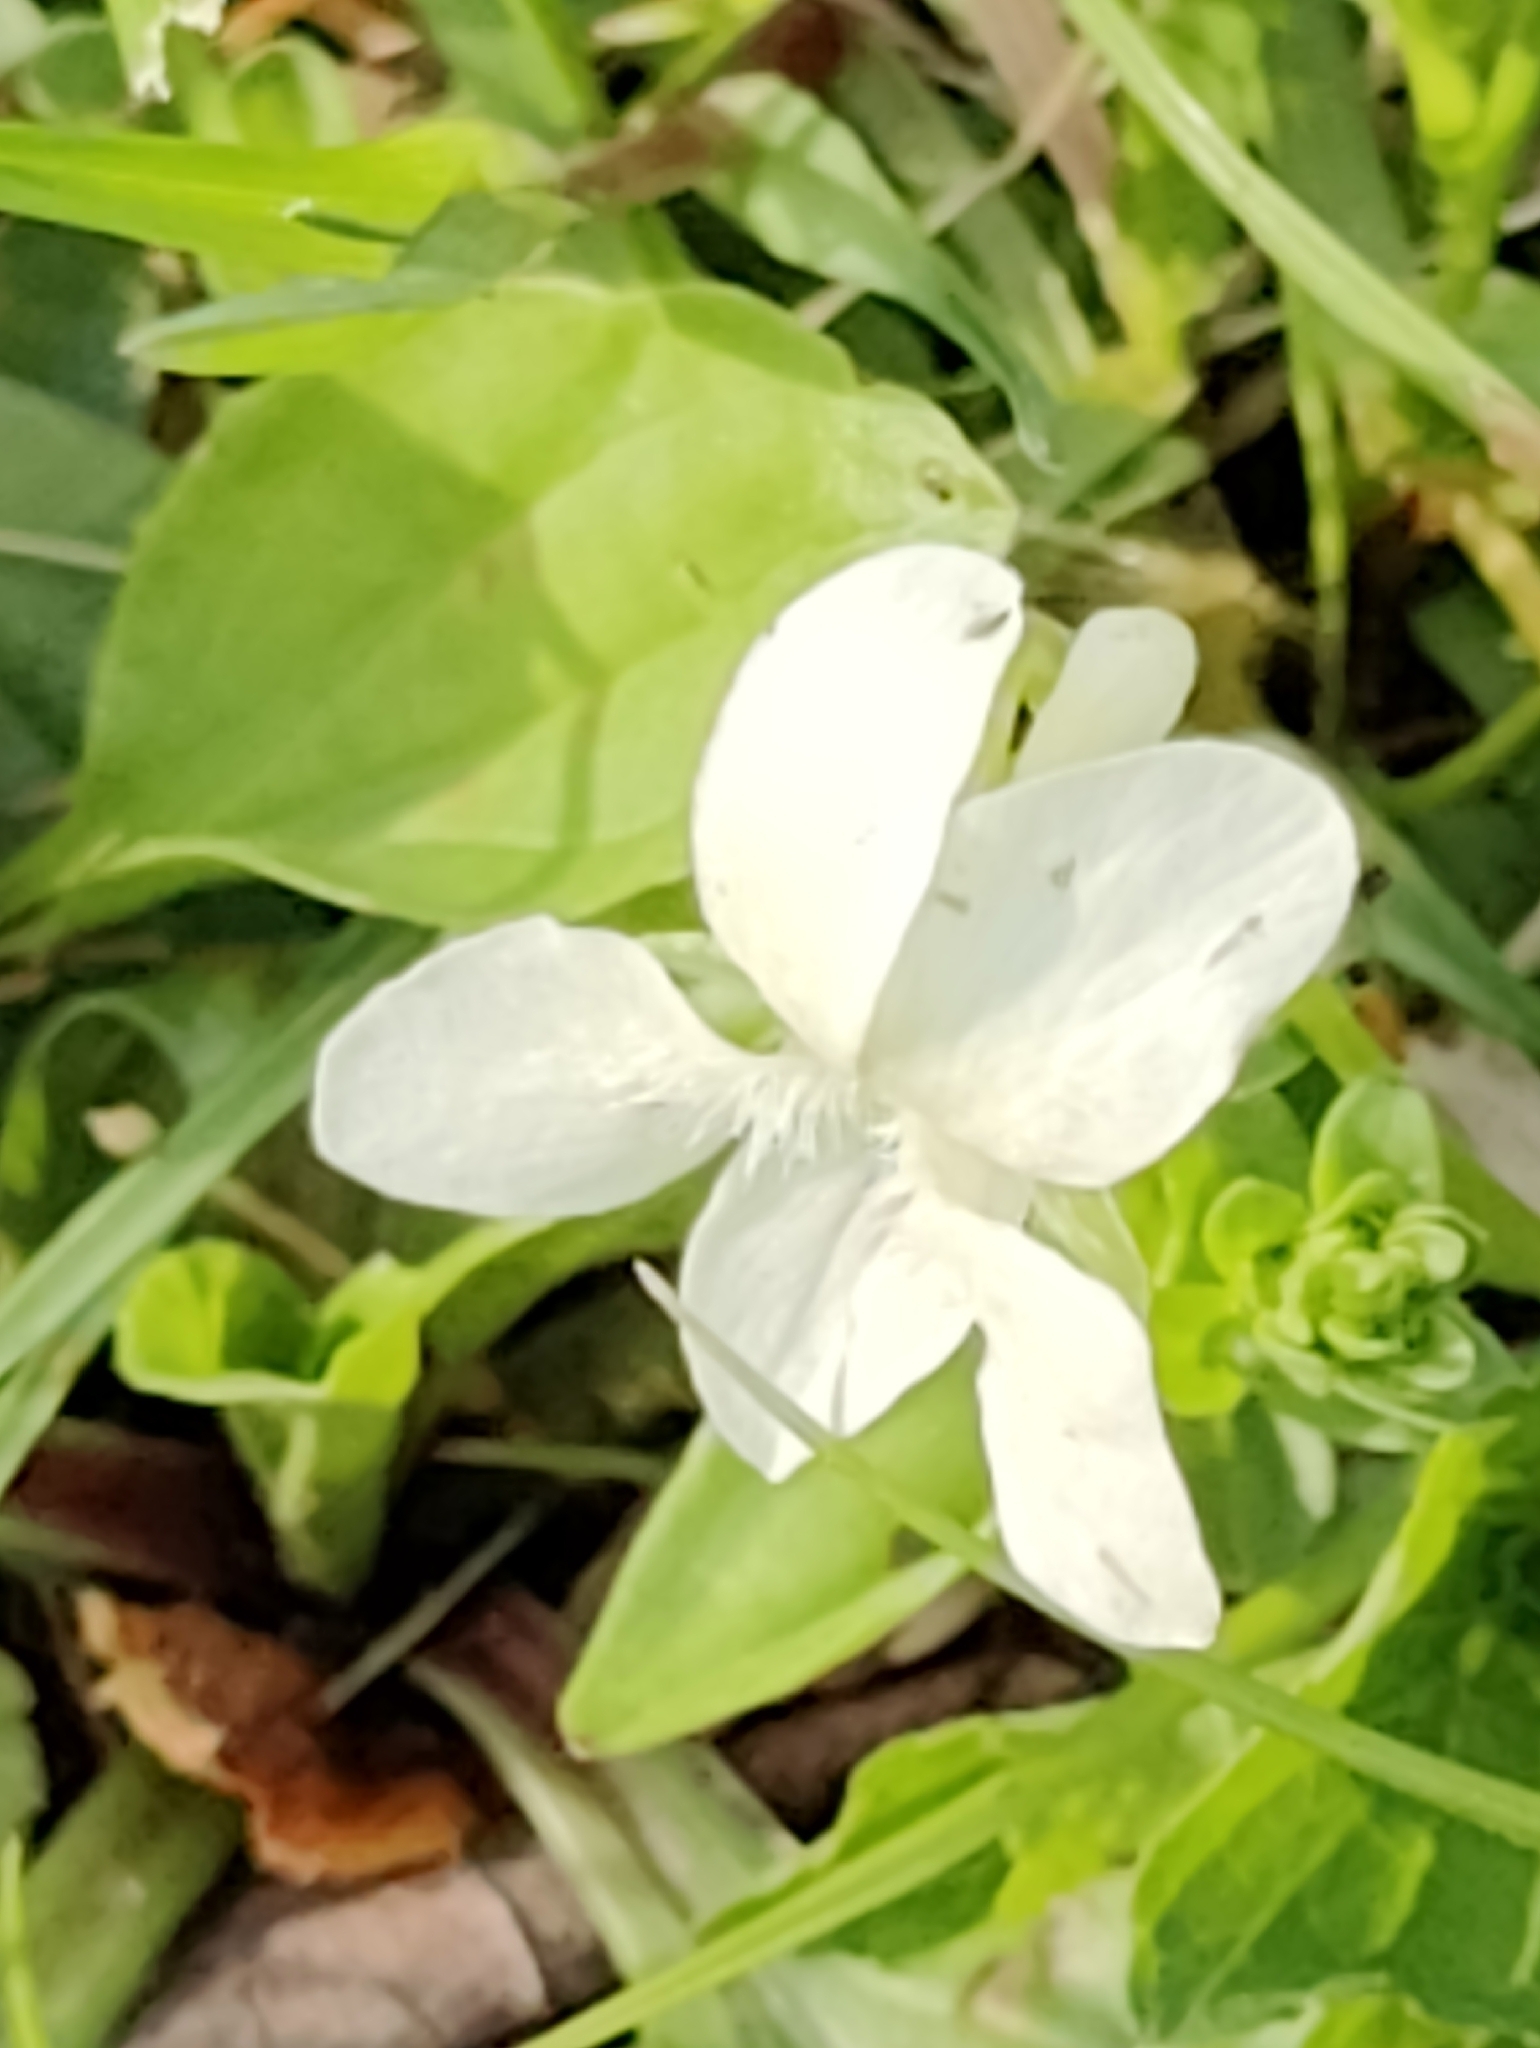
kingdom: Plantae
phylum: Tracheophyta
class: Magnoliopsida
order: Malpighiales
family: Violaceae
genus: Viola
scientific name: Viola striata
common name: Cream violet
